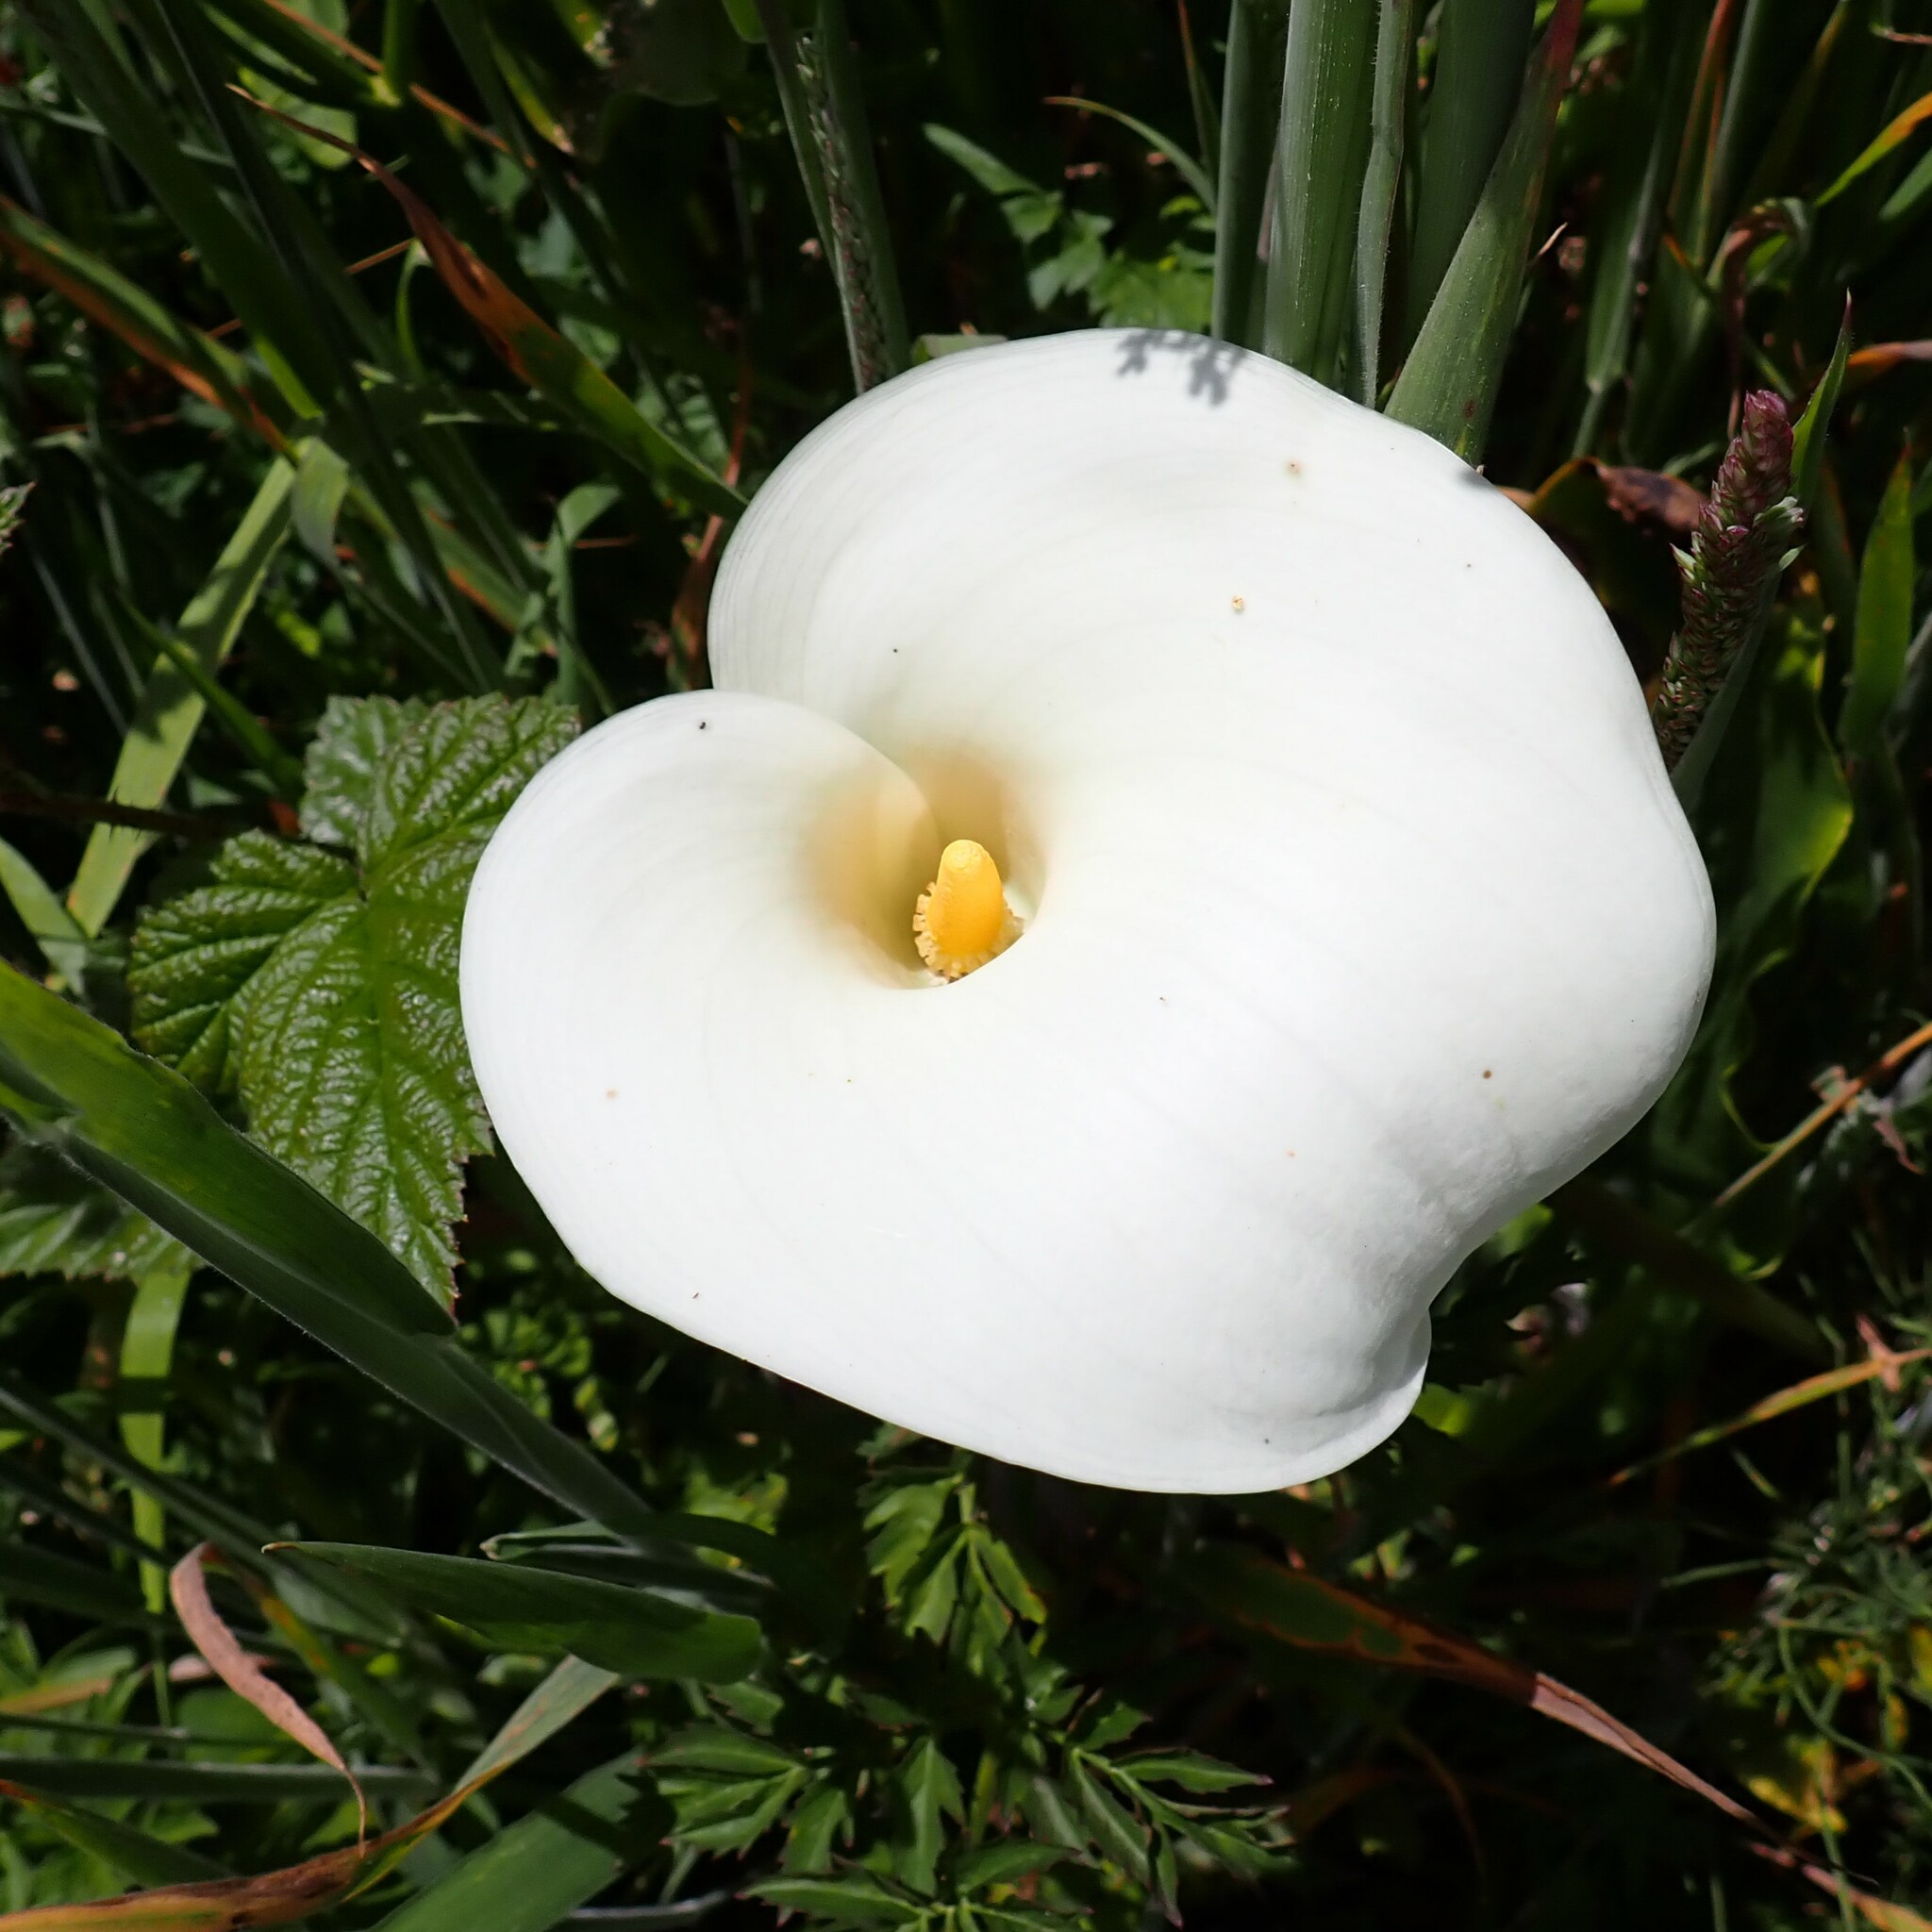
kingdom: Plantae
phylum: Tracheophyta
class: Liliopsida
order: Alismatales
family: Araceae
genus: Zantedeschia
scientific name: Zantedeschia aethiopica
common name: Altar-lily
